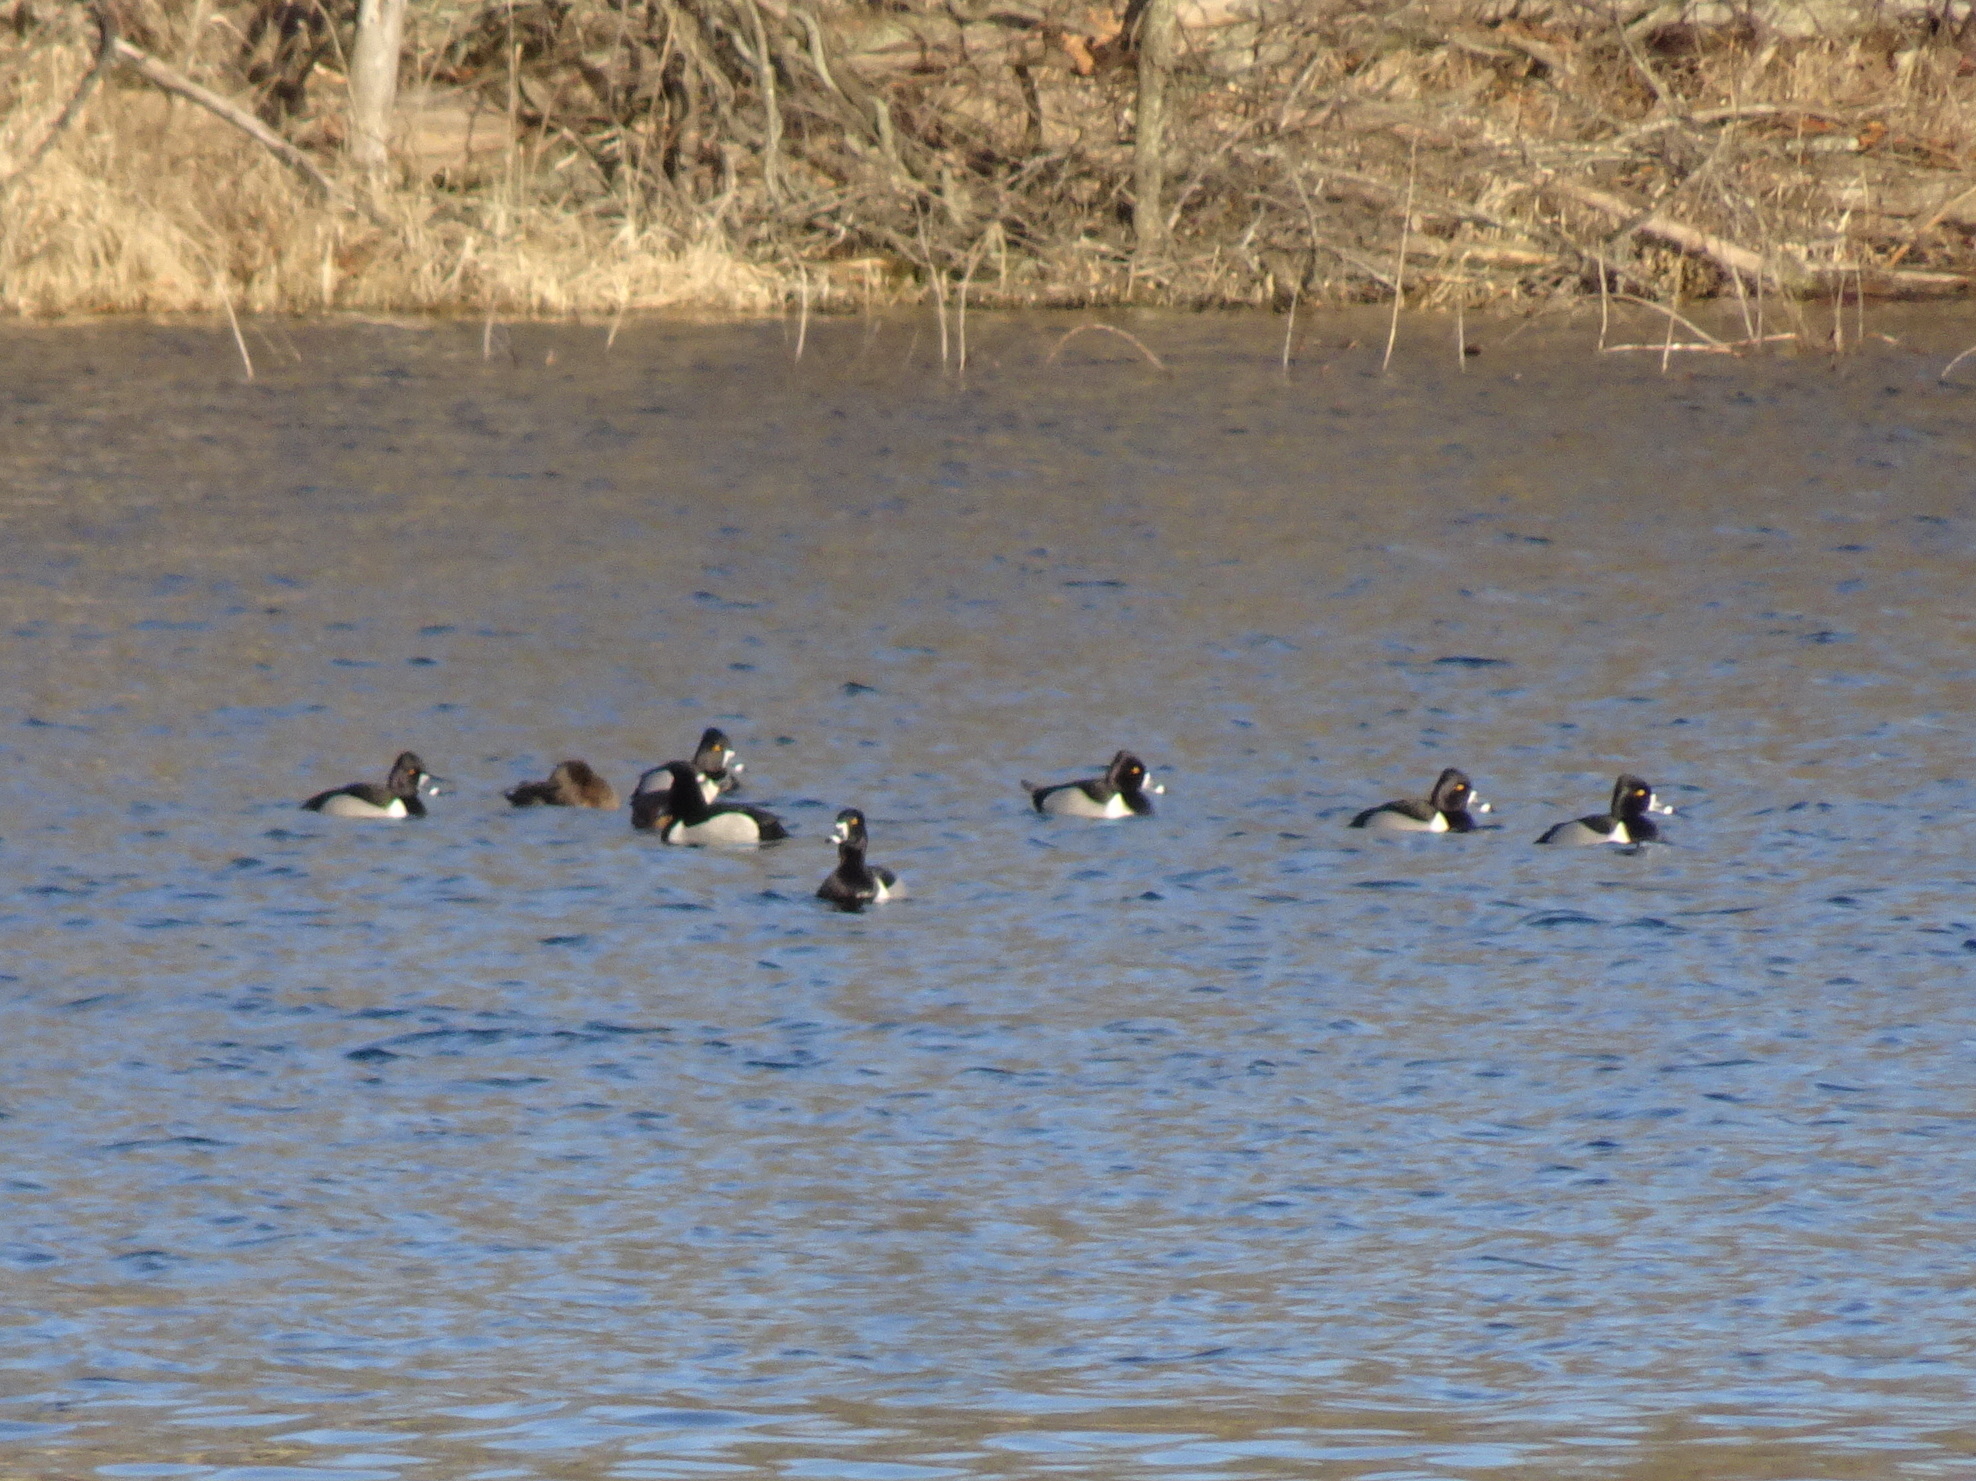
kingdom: Animalia
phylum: Chordata
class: Aves
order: Anseriformes
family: Anatidae
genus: Aythya
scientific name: Aythya collaris
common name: Ring-necked duck
